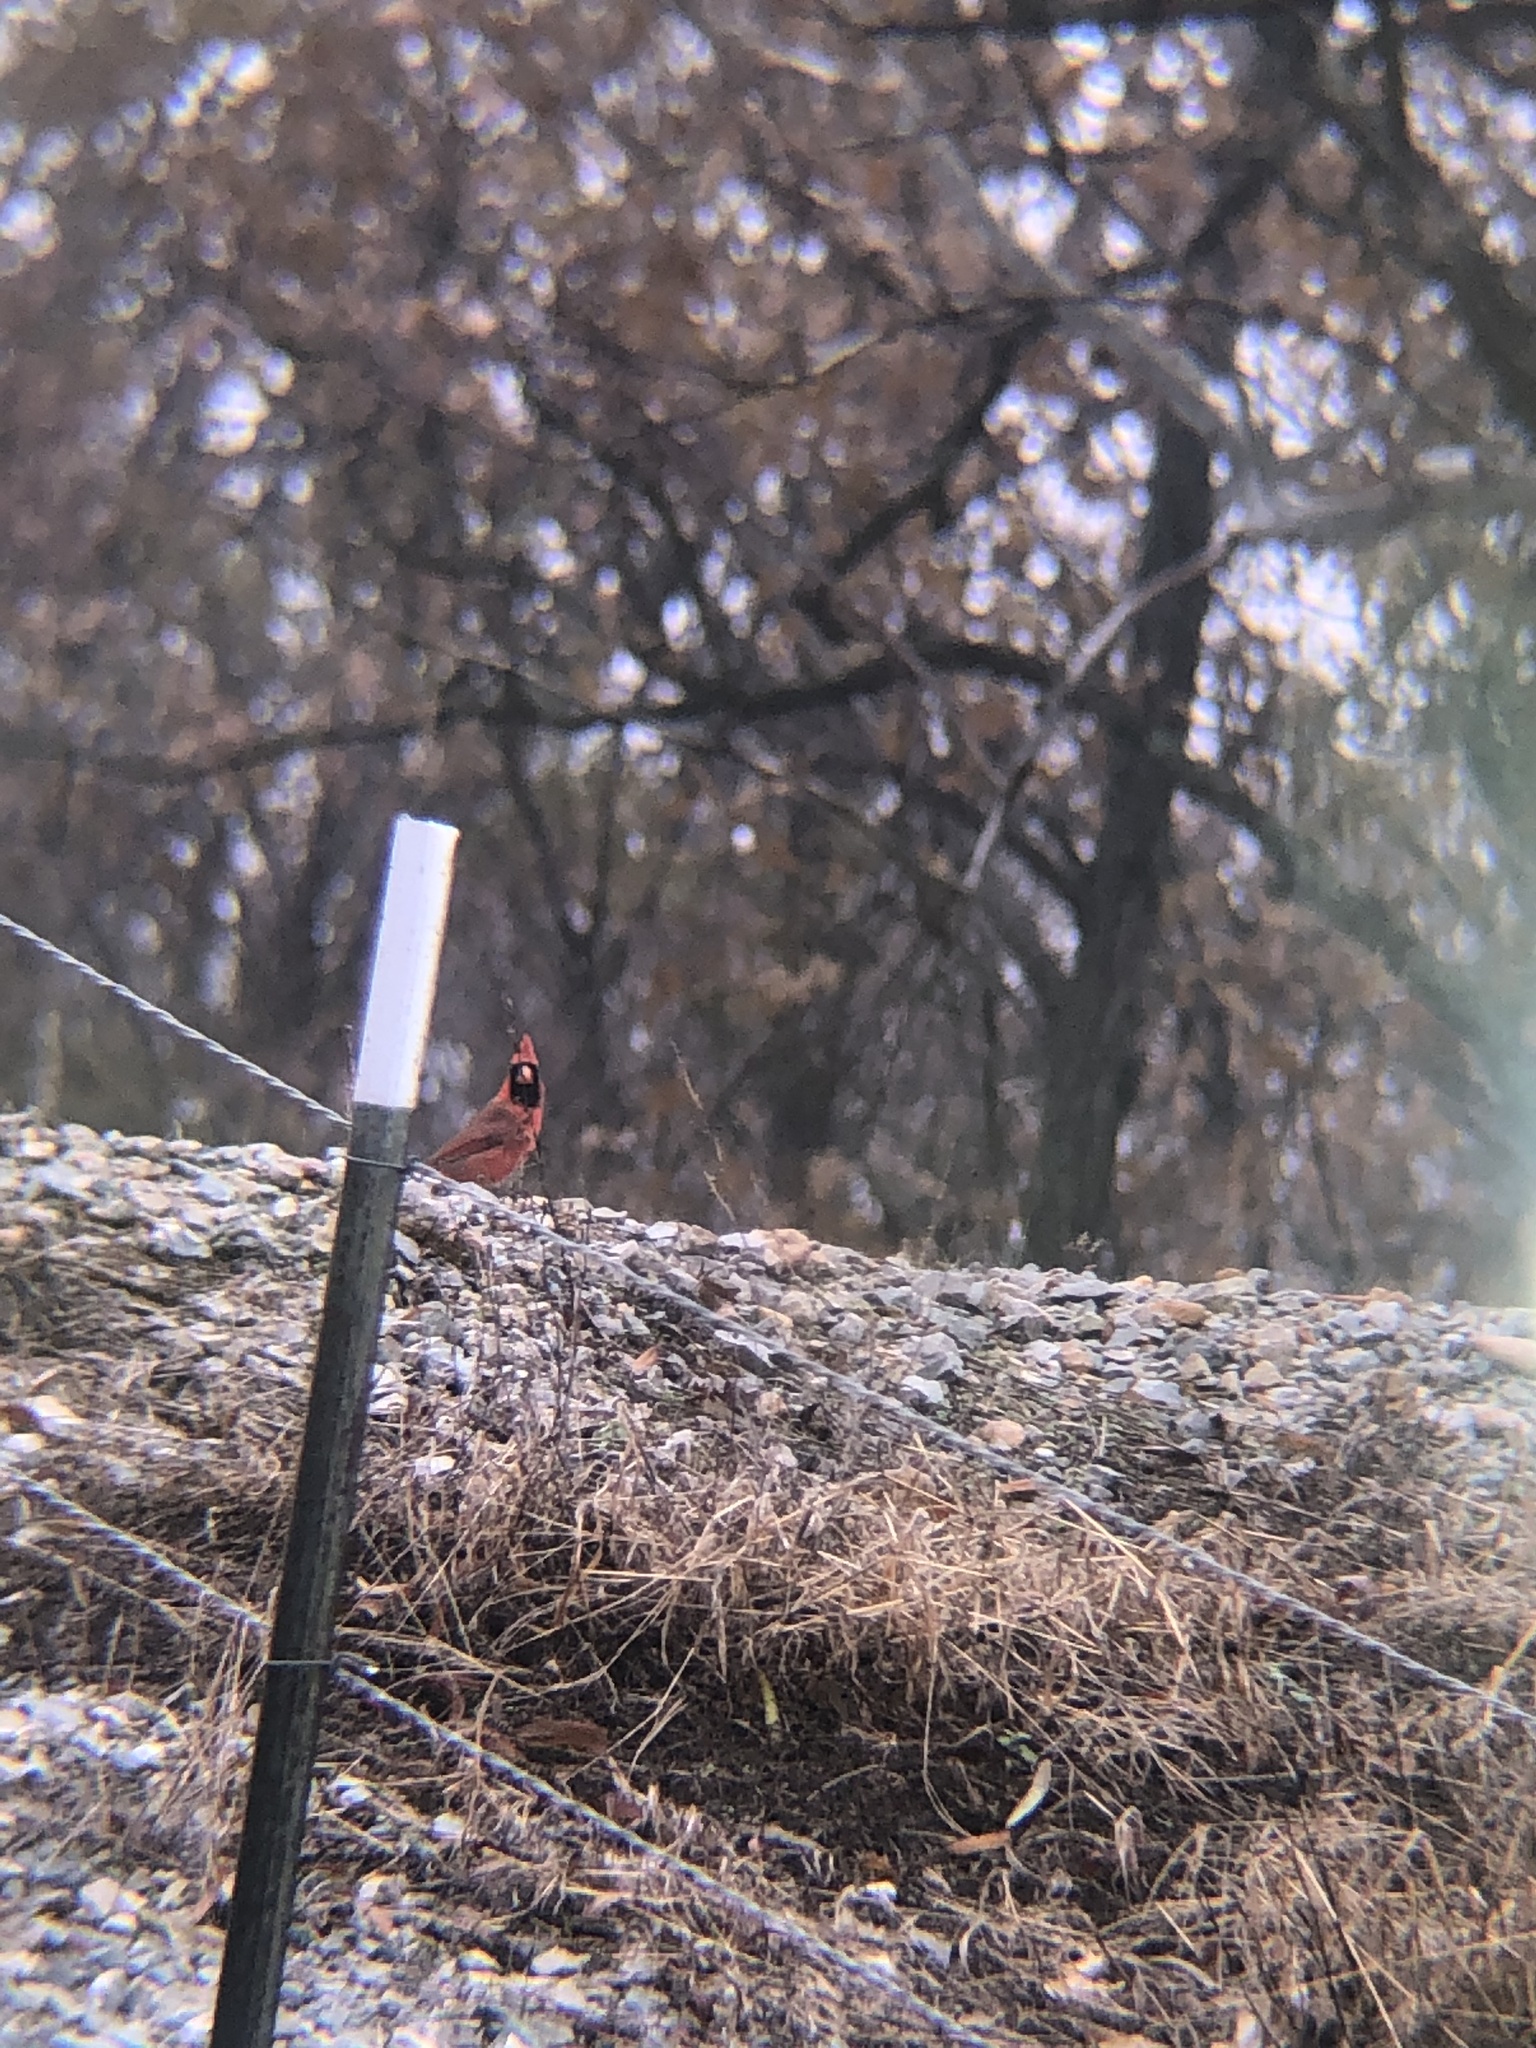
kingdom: Animalia
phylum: Chordata
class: Aves
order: Passeriformes
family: Cardinalidae
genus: Cardinalis
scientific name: Cardinalis cardinalis
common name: Northern cardinal
